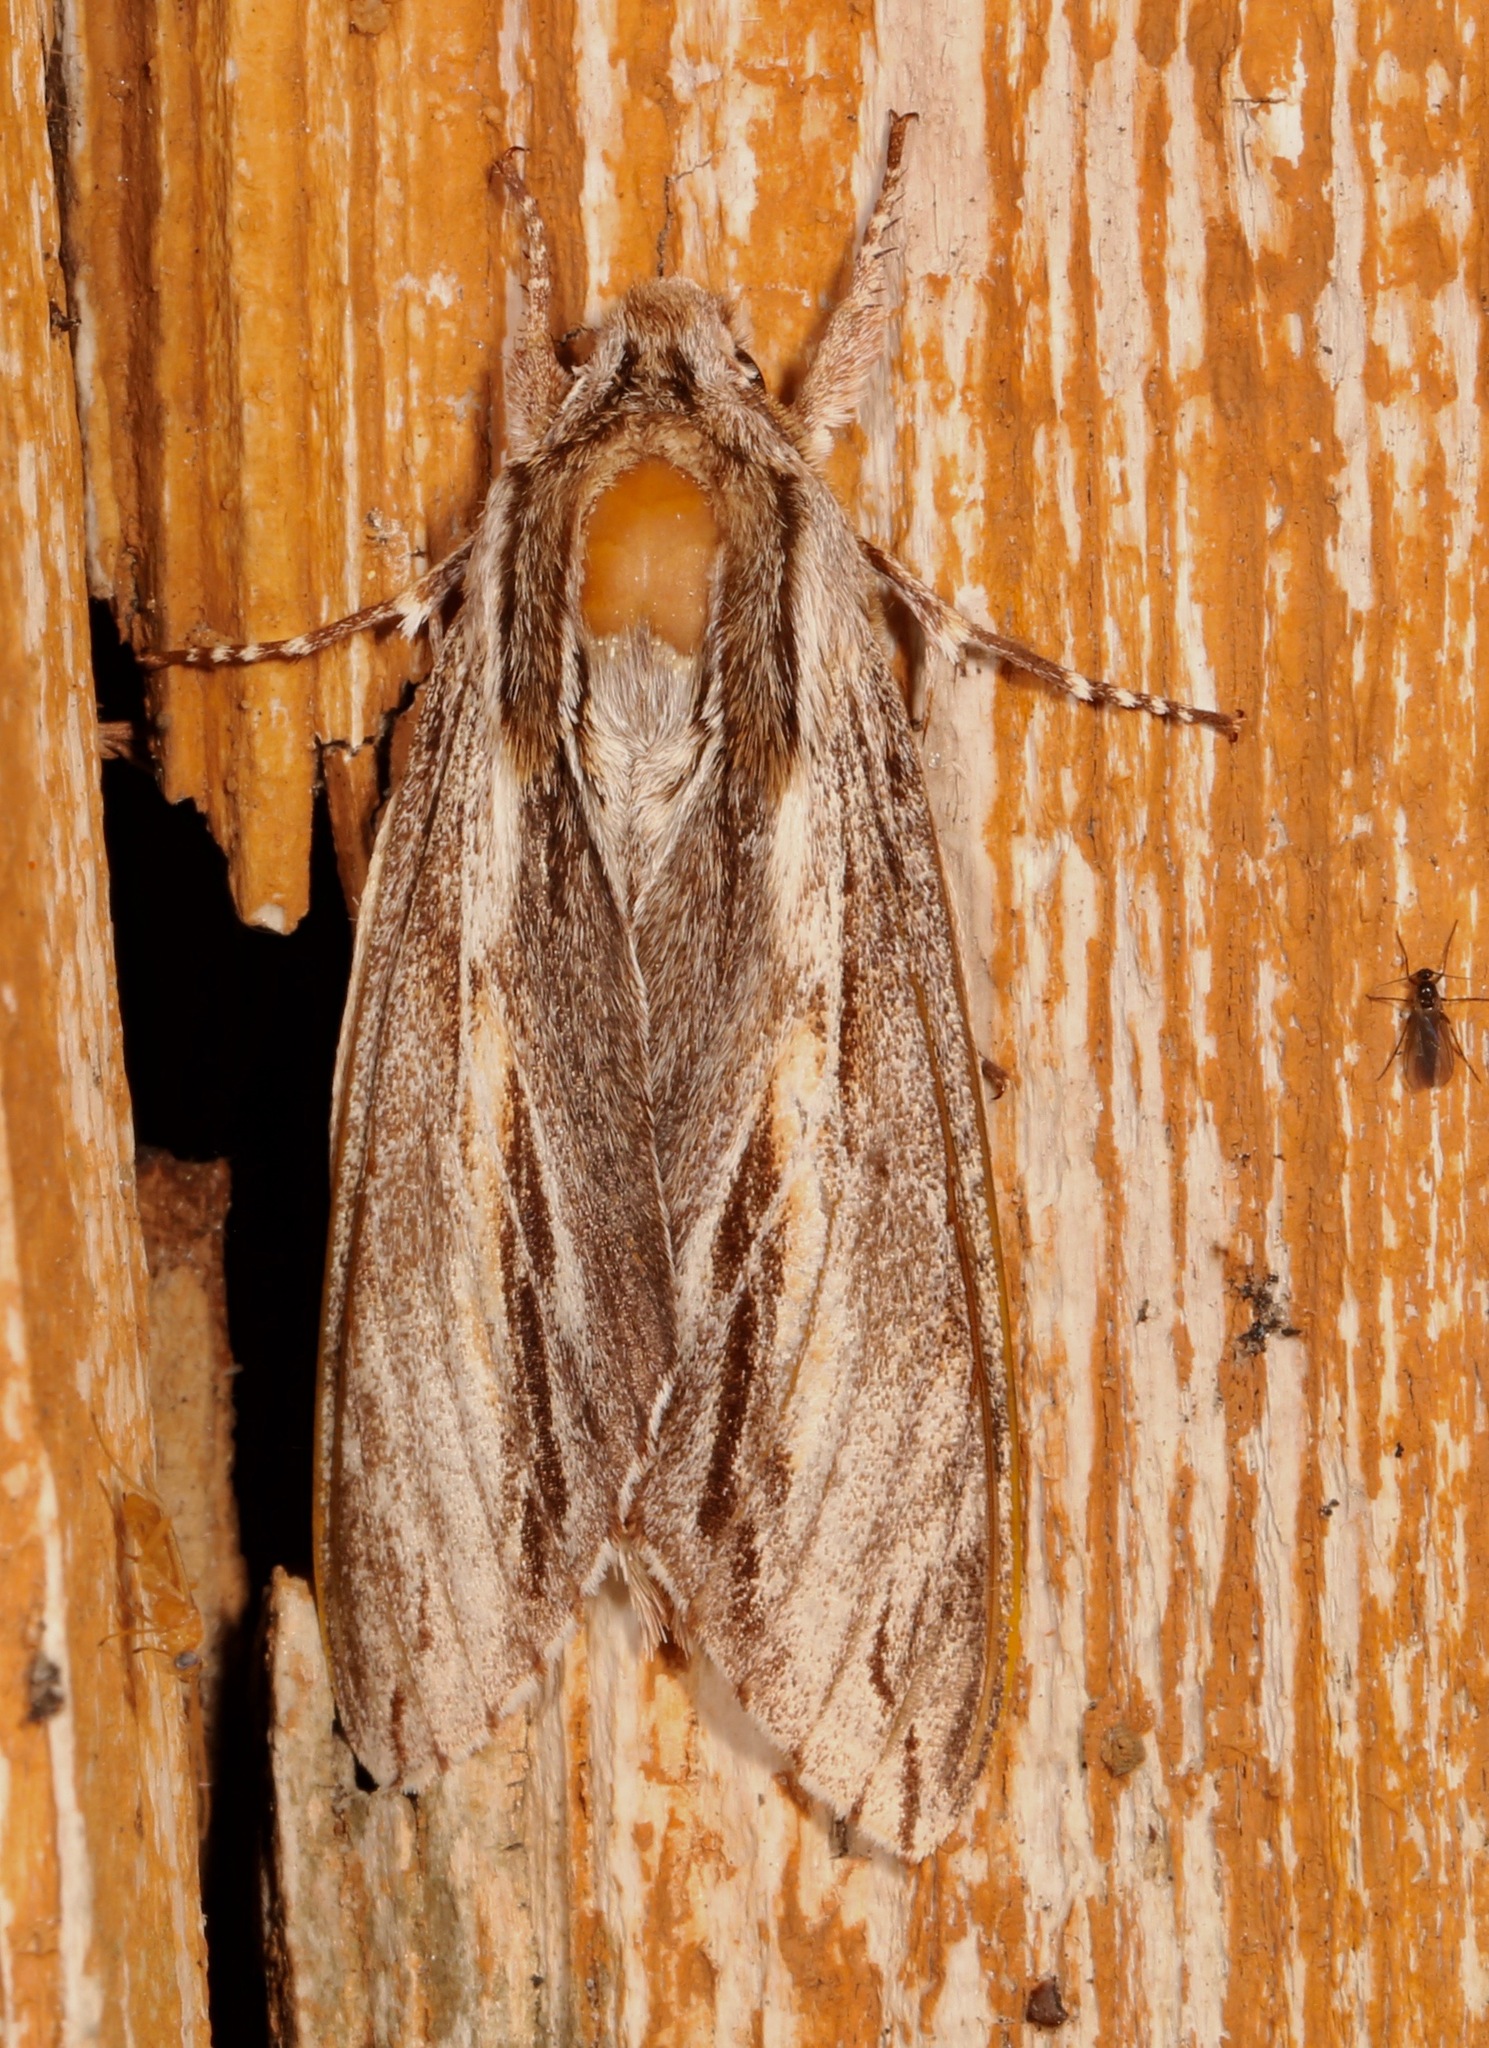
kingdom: Animalia
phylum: Arthropoda
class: Insecta
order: Lepidoptera
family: Sphingidae
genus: Isoparce
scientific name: Isoparce cupressi
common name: Cypress sphinx
